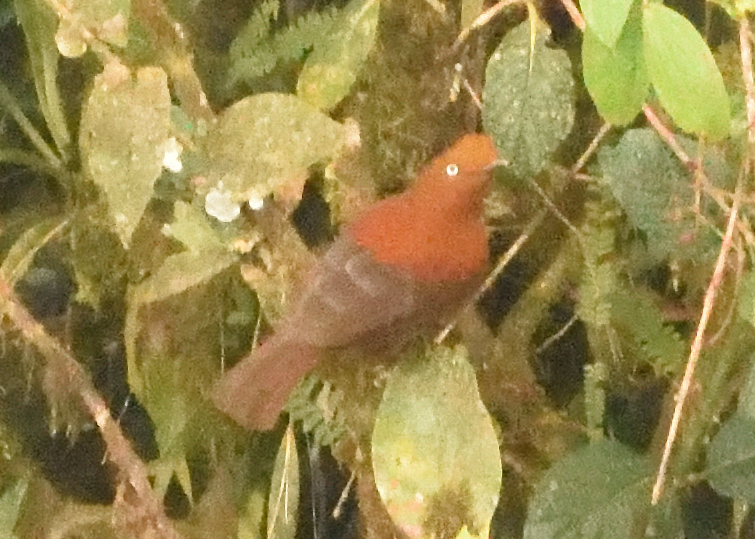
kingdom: Animalia
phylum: Chordata
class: Aves
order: Passeriformes
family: Cotingidae
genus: Rupicola
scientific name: Rupicola peruvianus
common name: Andean cock-of-the-rock
